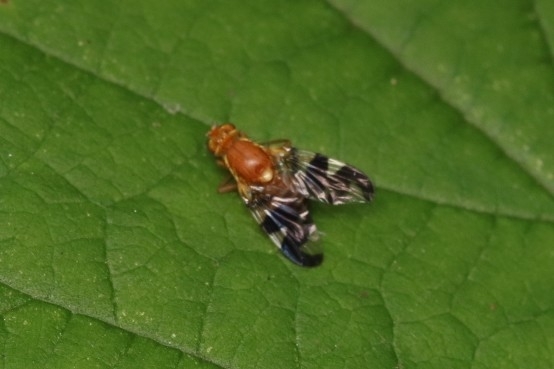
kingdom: Animalia
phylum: Arthropoda
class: Insecta
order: Diptera
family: Tephritidae
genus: Rhagoletis
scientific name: Rhagoletis suavis
